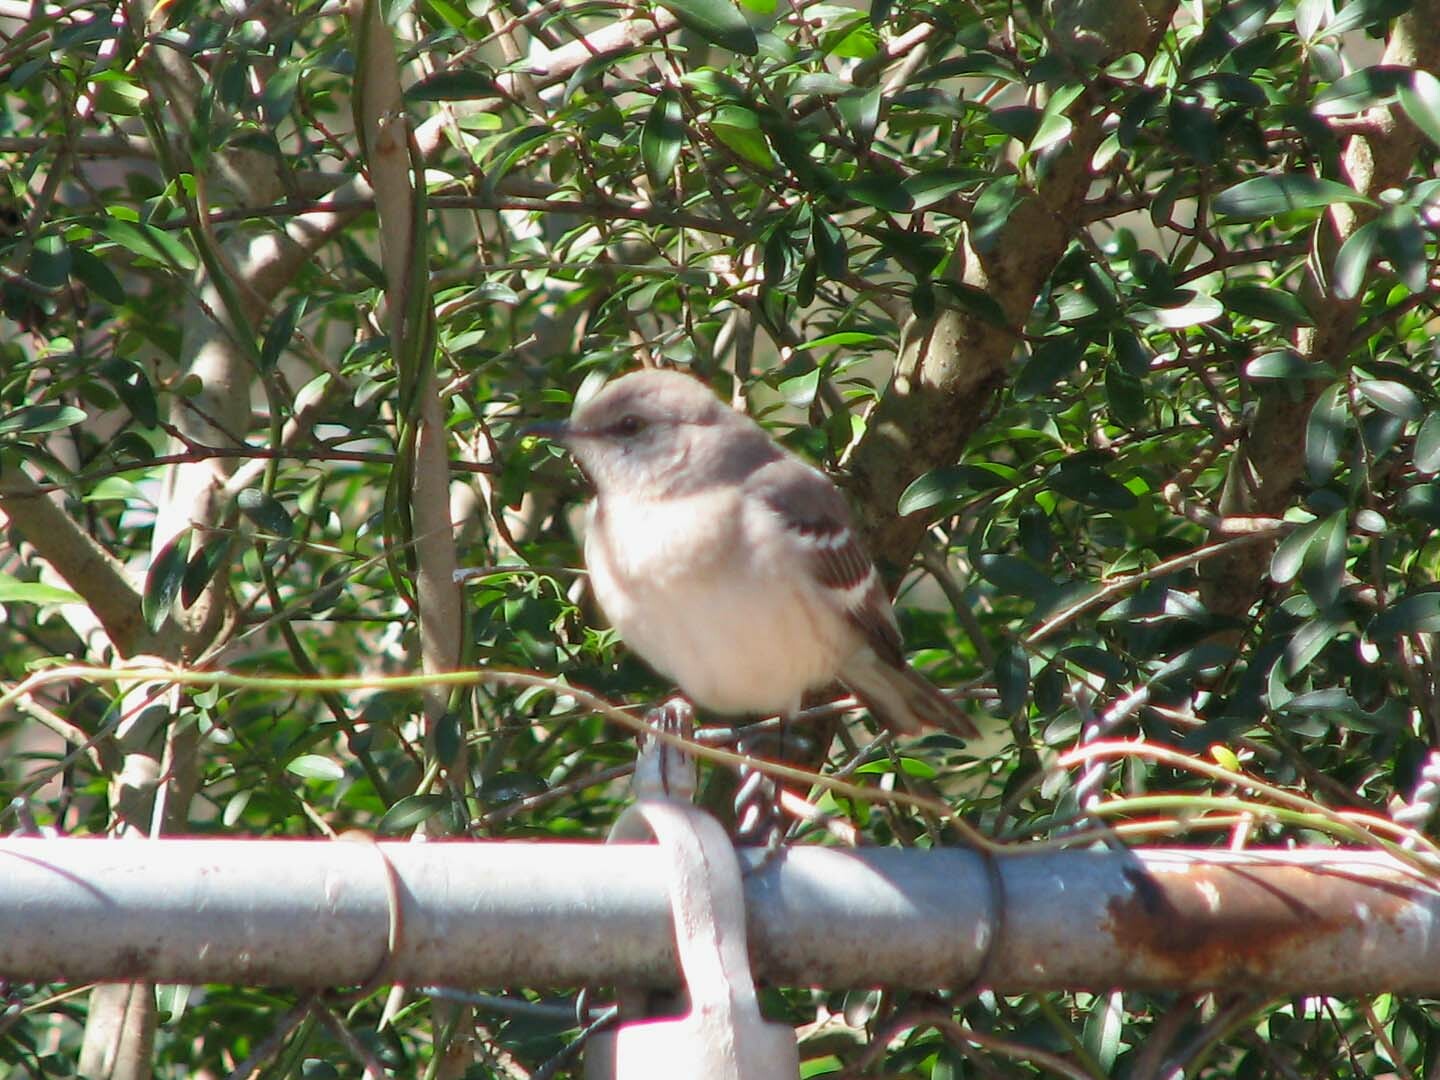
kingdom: Animalia
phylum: Chordata
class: Aves
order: Passeriformes
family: Mimidae
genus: Mimus
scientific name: Mimus polyglottos
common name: Northern mockingbird
